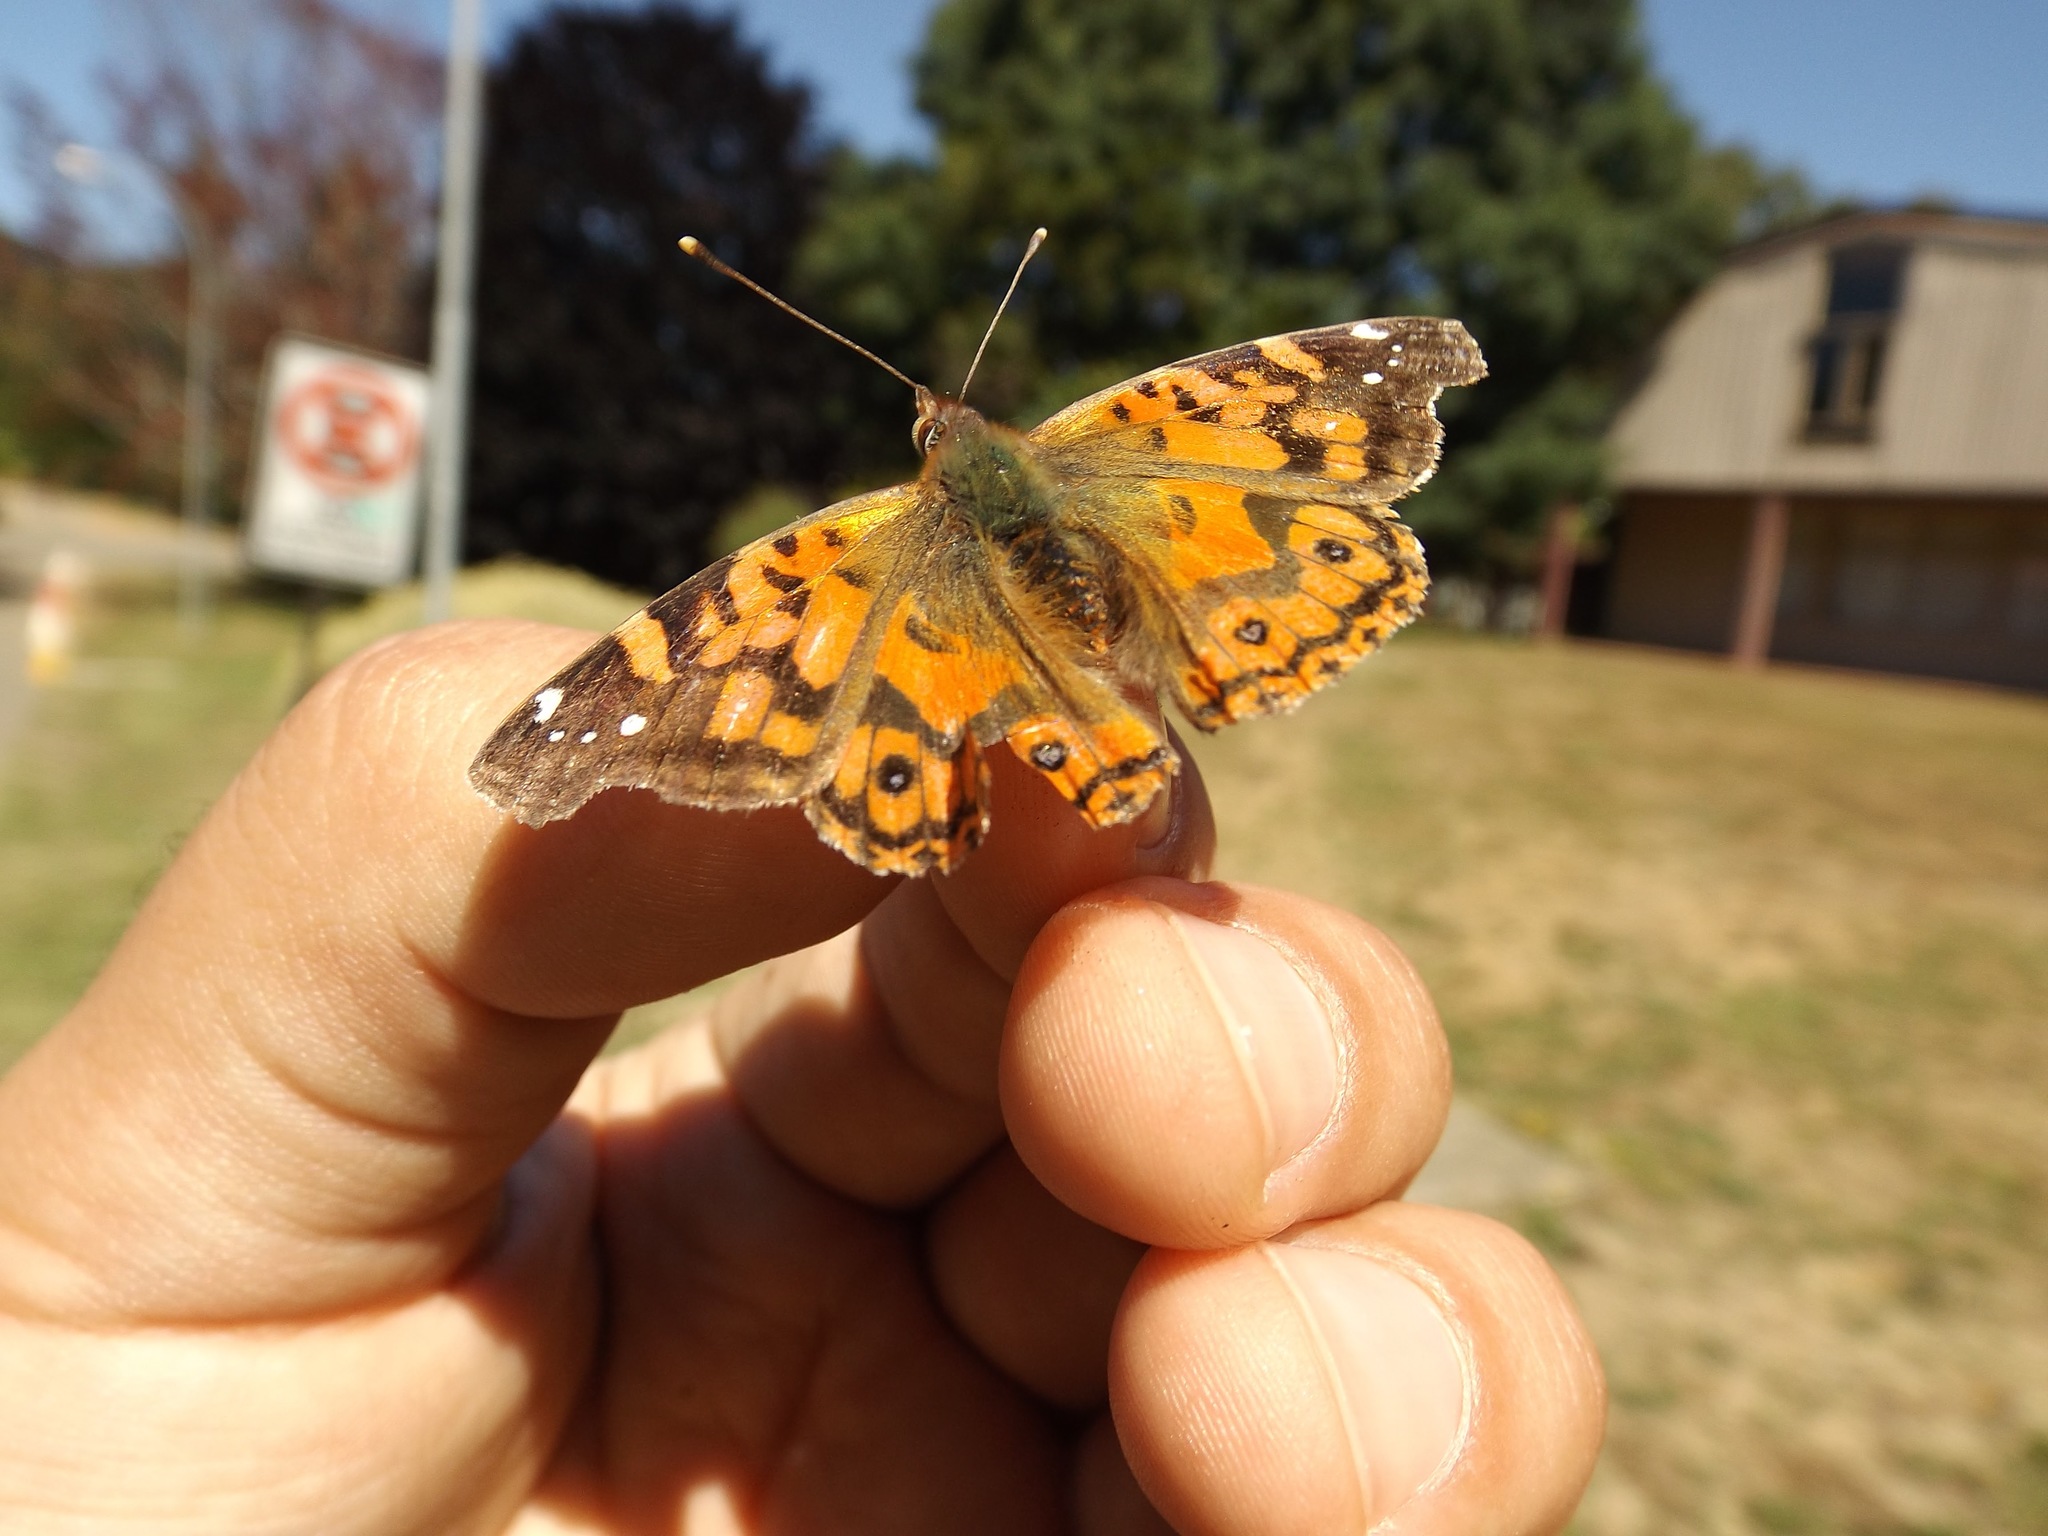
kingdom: Animalia
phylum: Arthropoda
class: Insecta
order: Lepidoptera
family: Nymphalidae
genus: Vanessa
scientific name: Vanessa terpsichore
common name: Chilean lady
